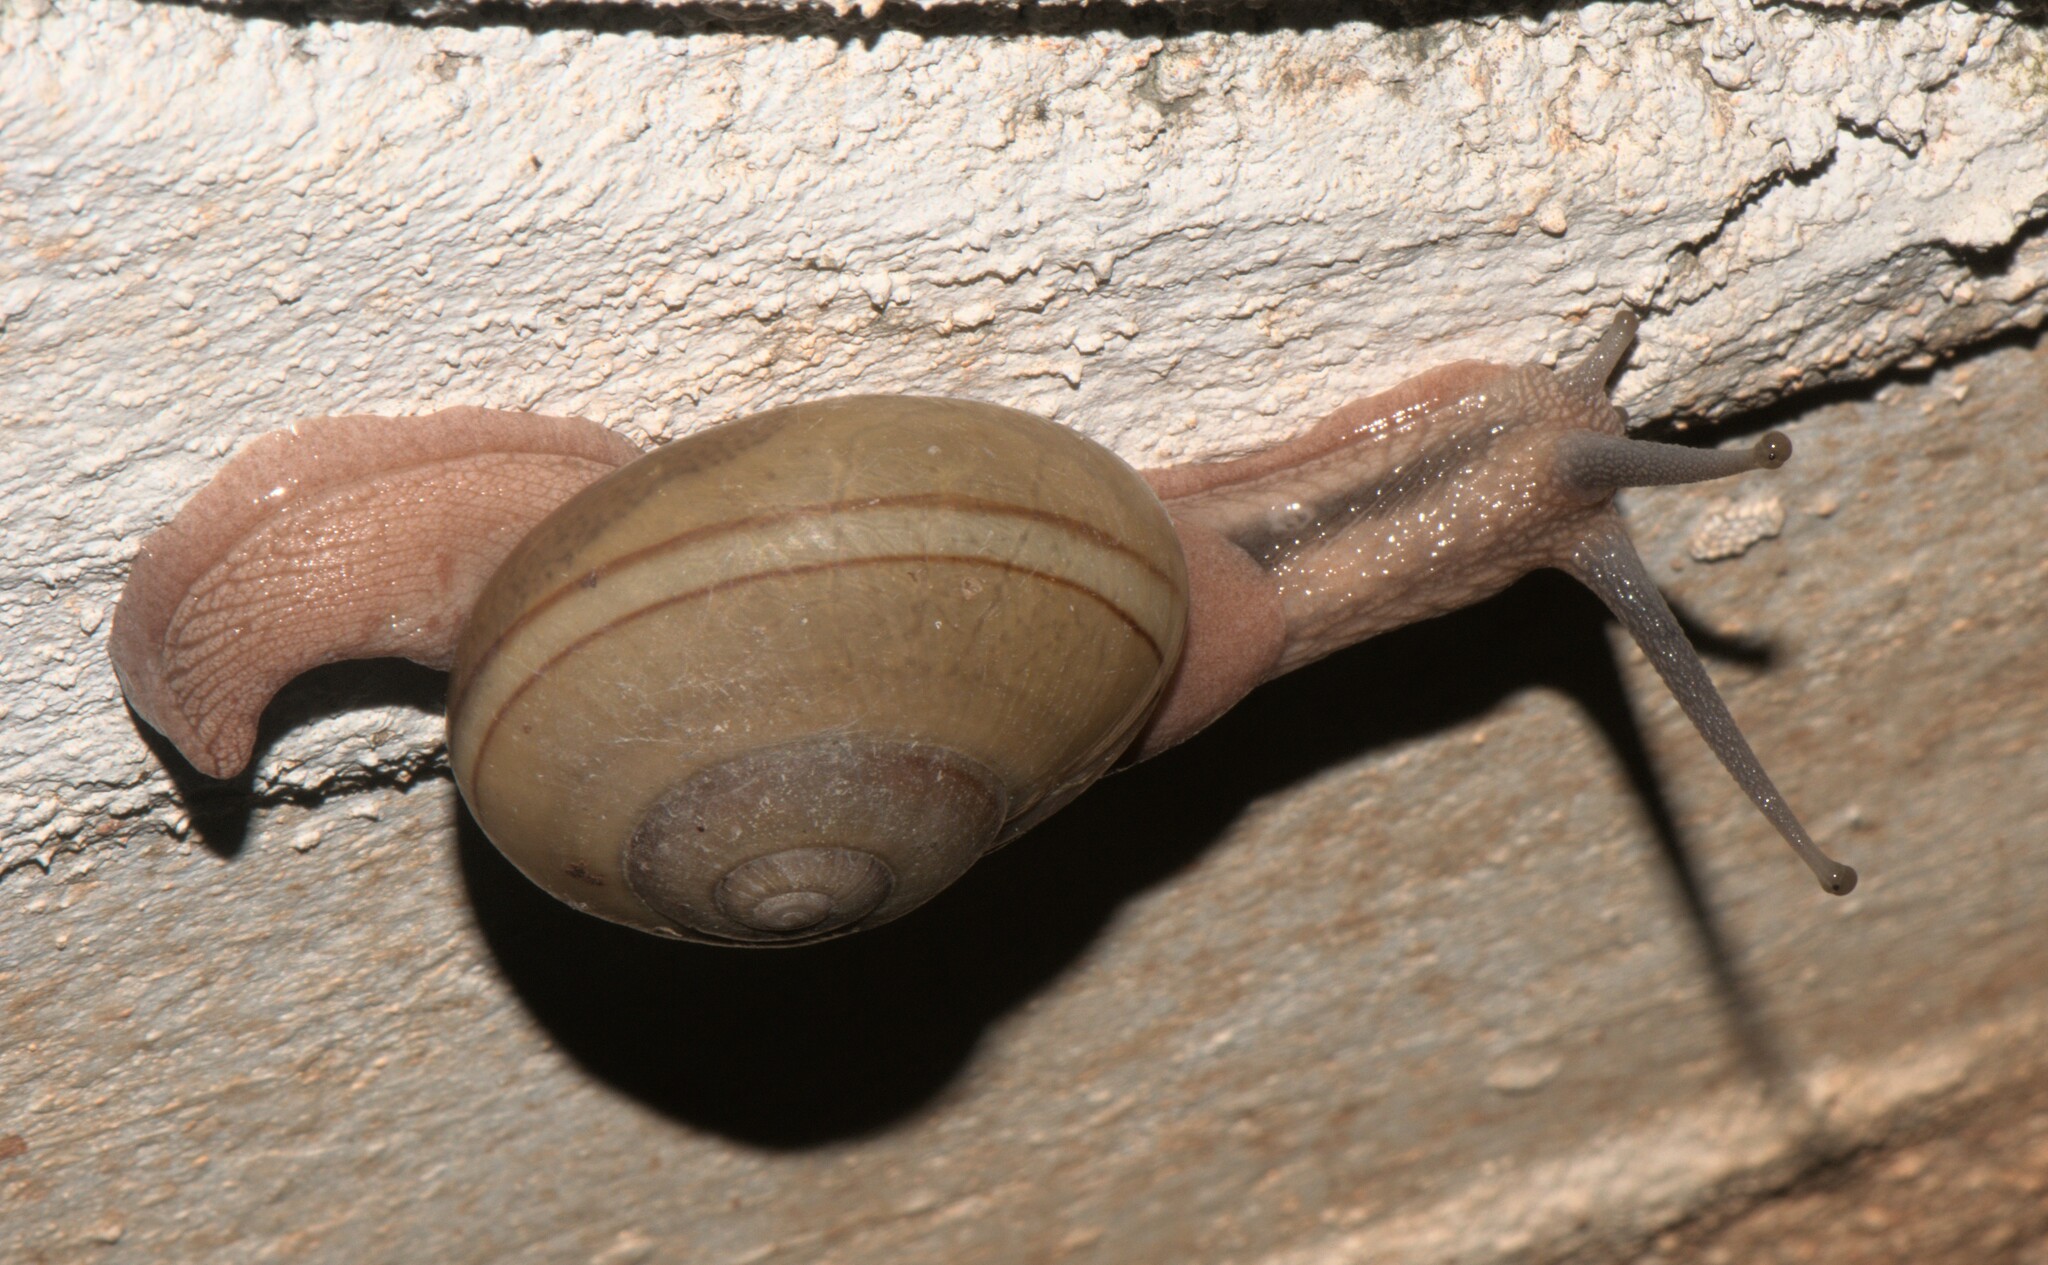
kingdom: Animalia
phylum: Mollusca
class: Gastropoda
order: Stylommatophora
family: Ariophantidae
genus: Ariophanta
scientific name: Ariophanta exilis
